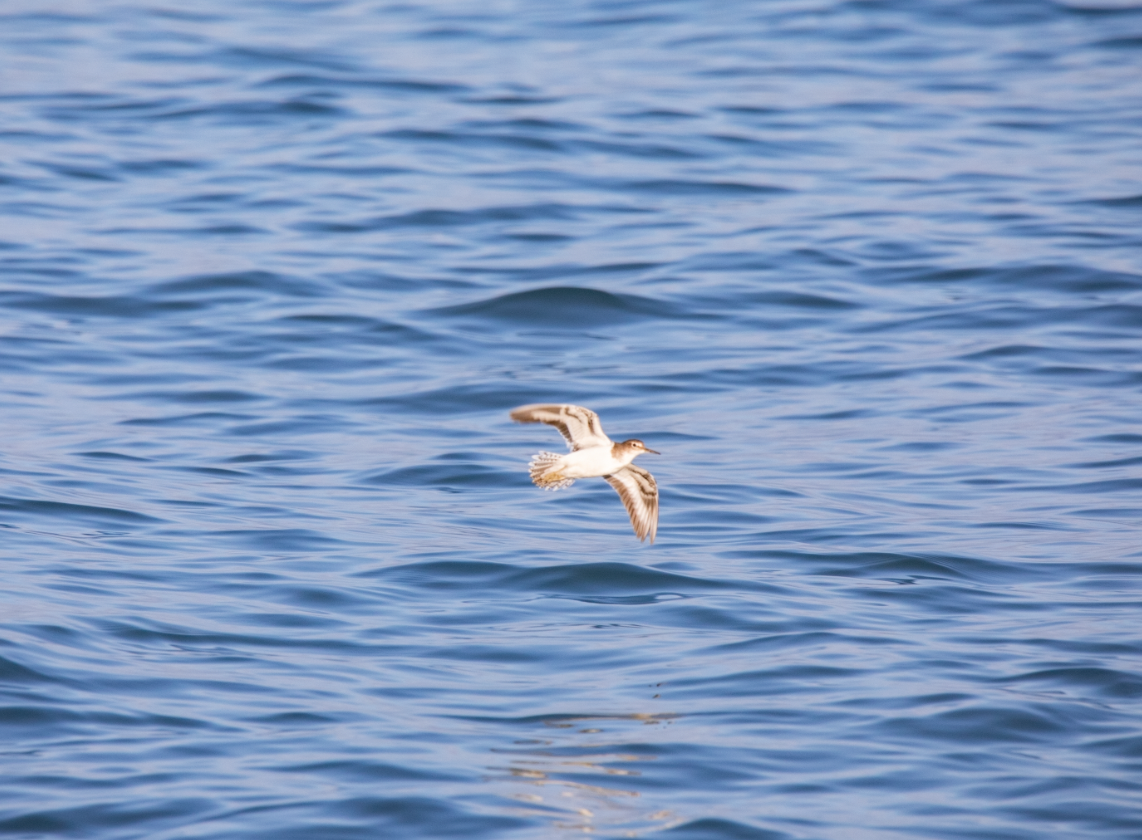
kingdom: Animalia
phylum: Chordata
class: Aves
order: Charadriiformes
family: Scolopacidae
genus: Actitis
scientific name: Actitis hypoleucos
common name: Common sandpiper
